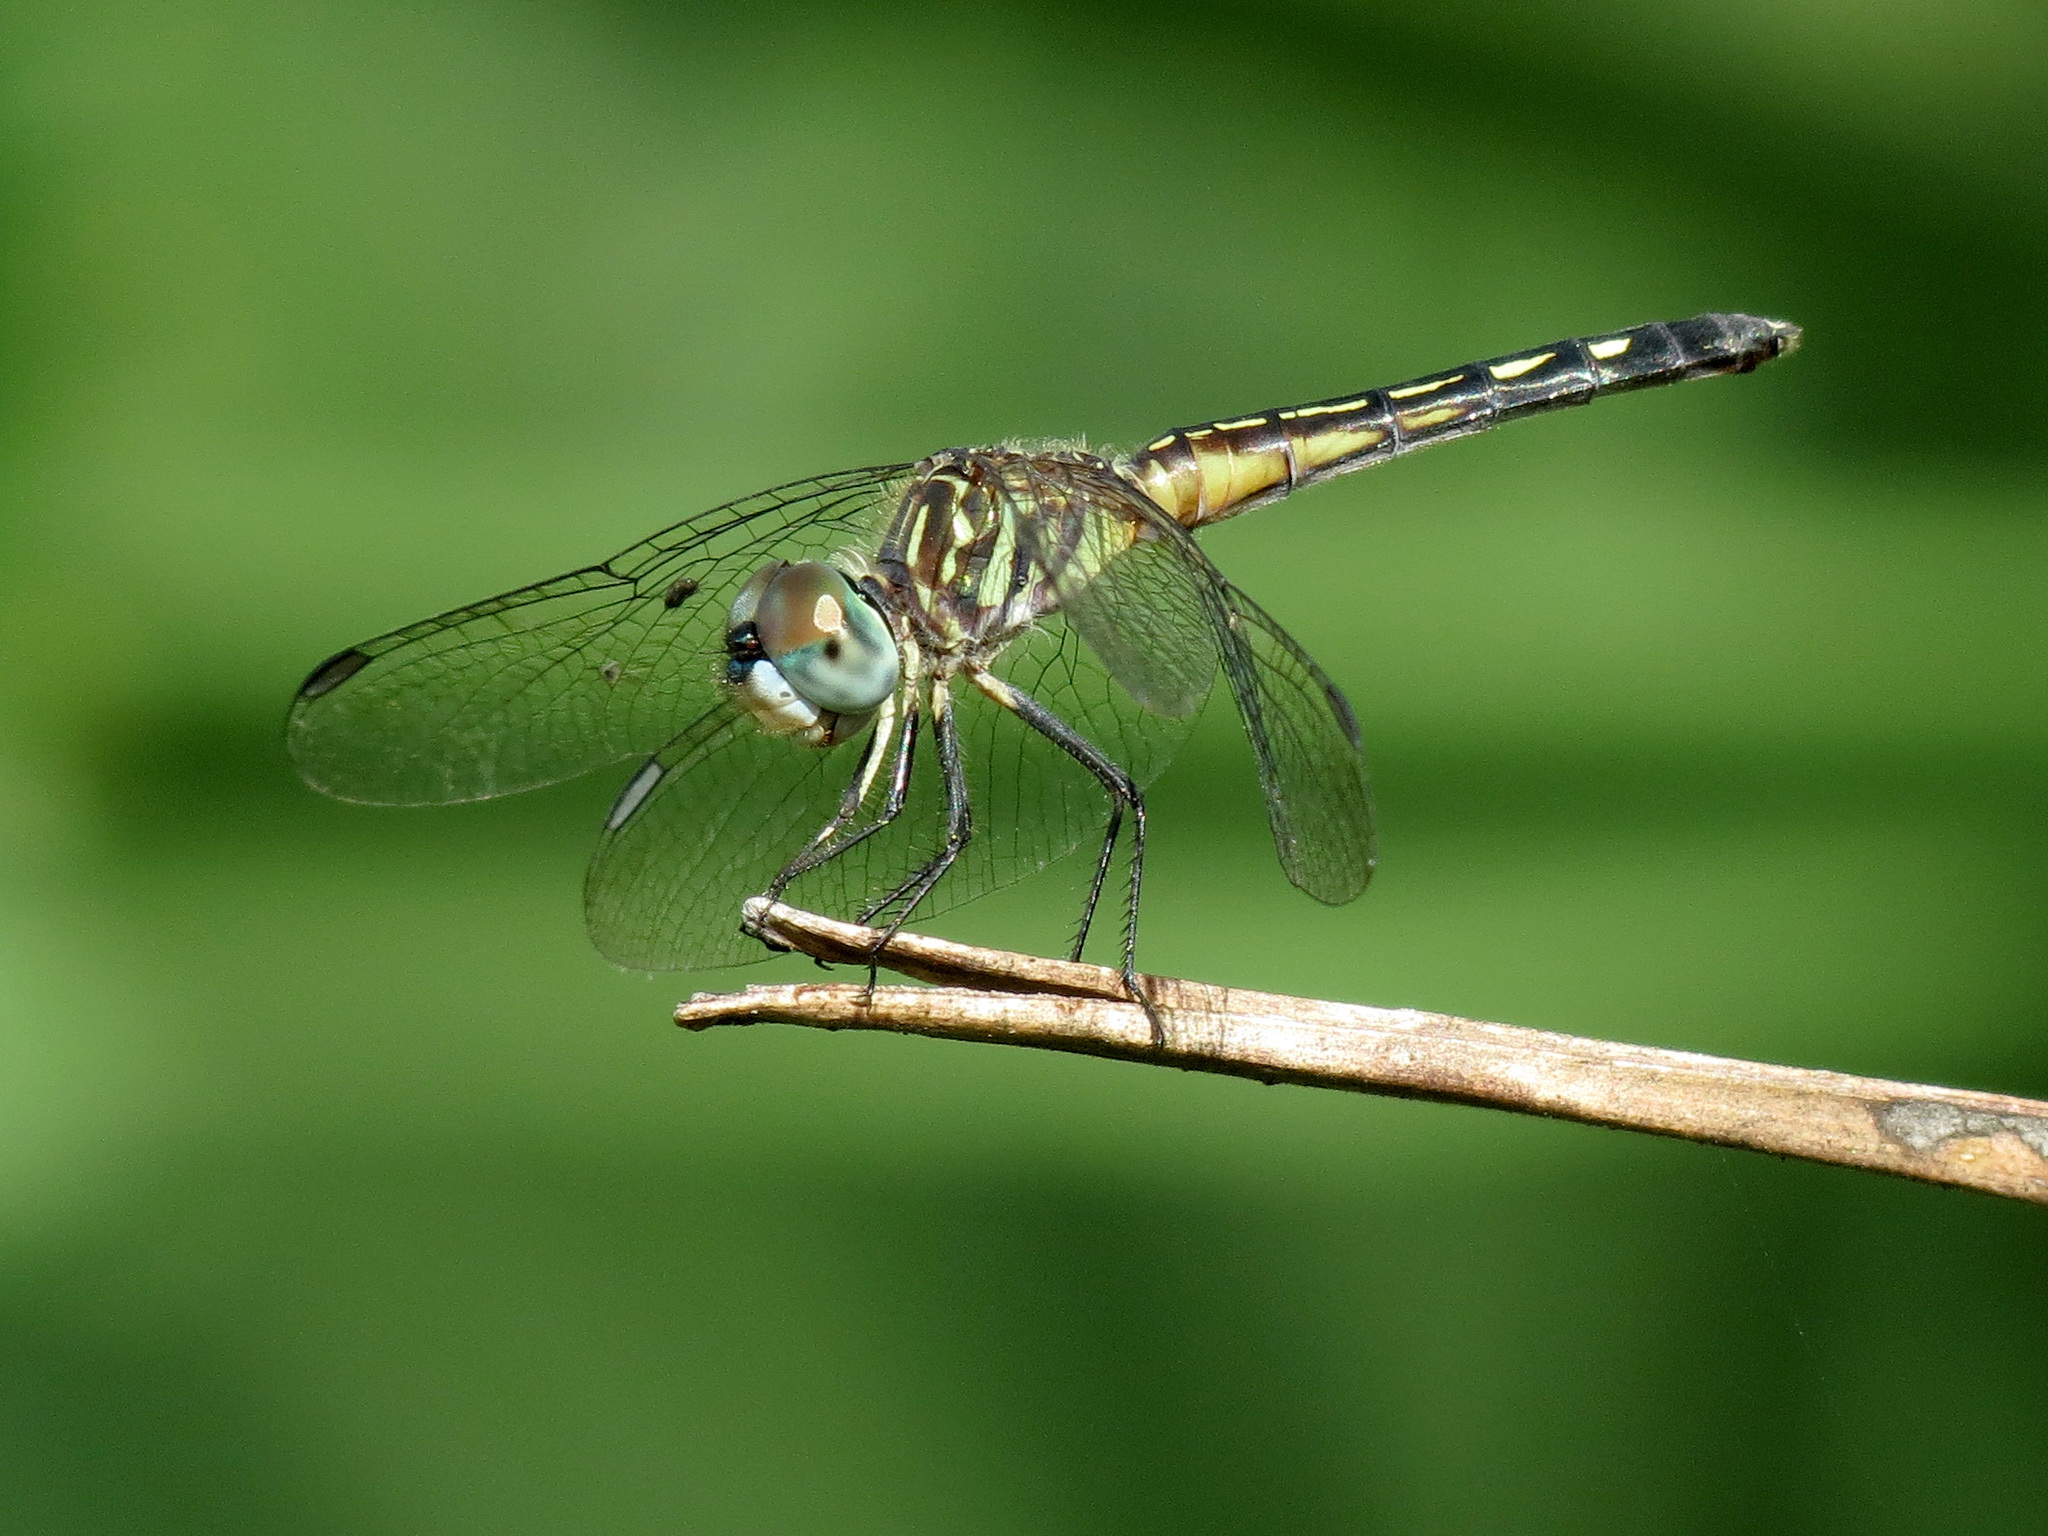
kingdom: Animalia
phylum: Arthropoda
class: Insecta
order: Odonata
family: Libellulidae
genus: Pachydiplax
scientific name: Pachydiplax longipennis
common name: Blue dasher
